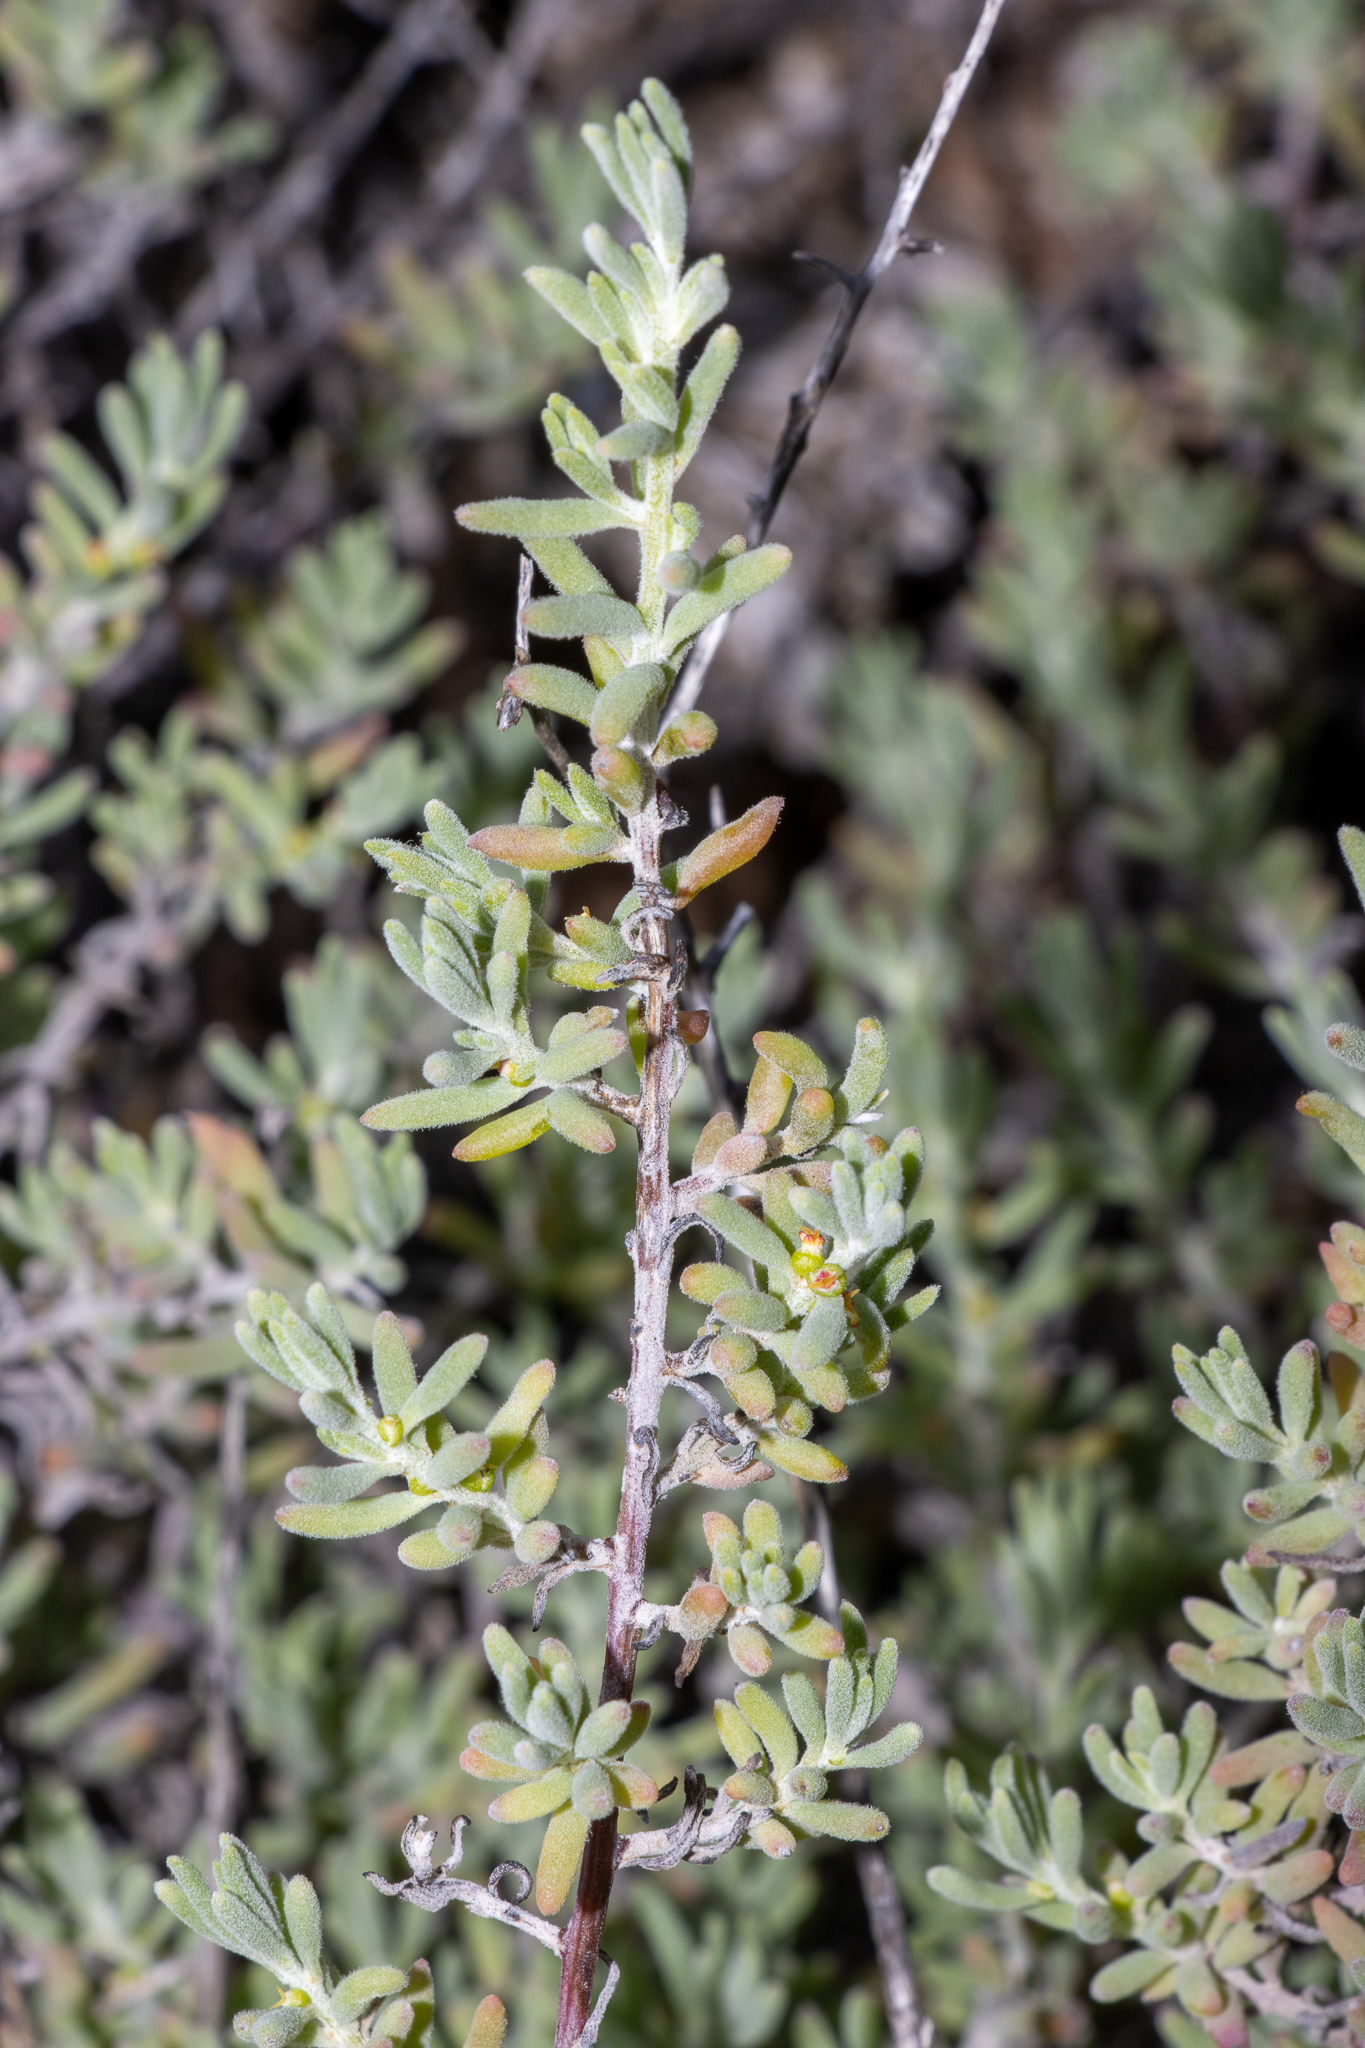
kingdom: Plantae
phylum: Tracheophyta
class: Magnoliopsida
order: Caryophyllales
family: Amaranthaceae
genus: Enchylaena
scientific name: Enchylaena tomentosa
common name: Ruby saltbush
